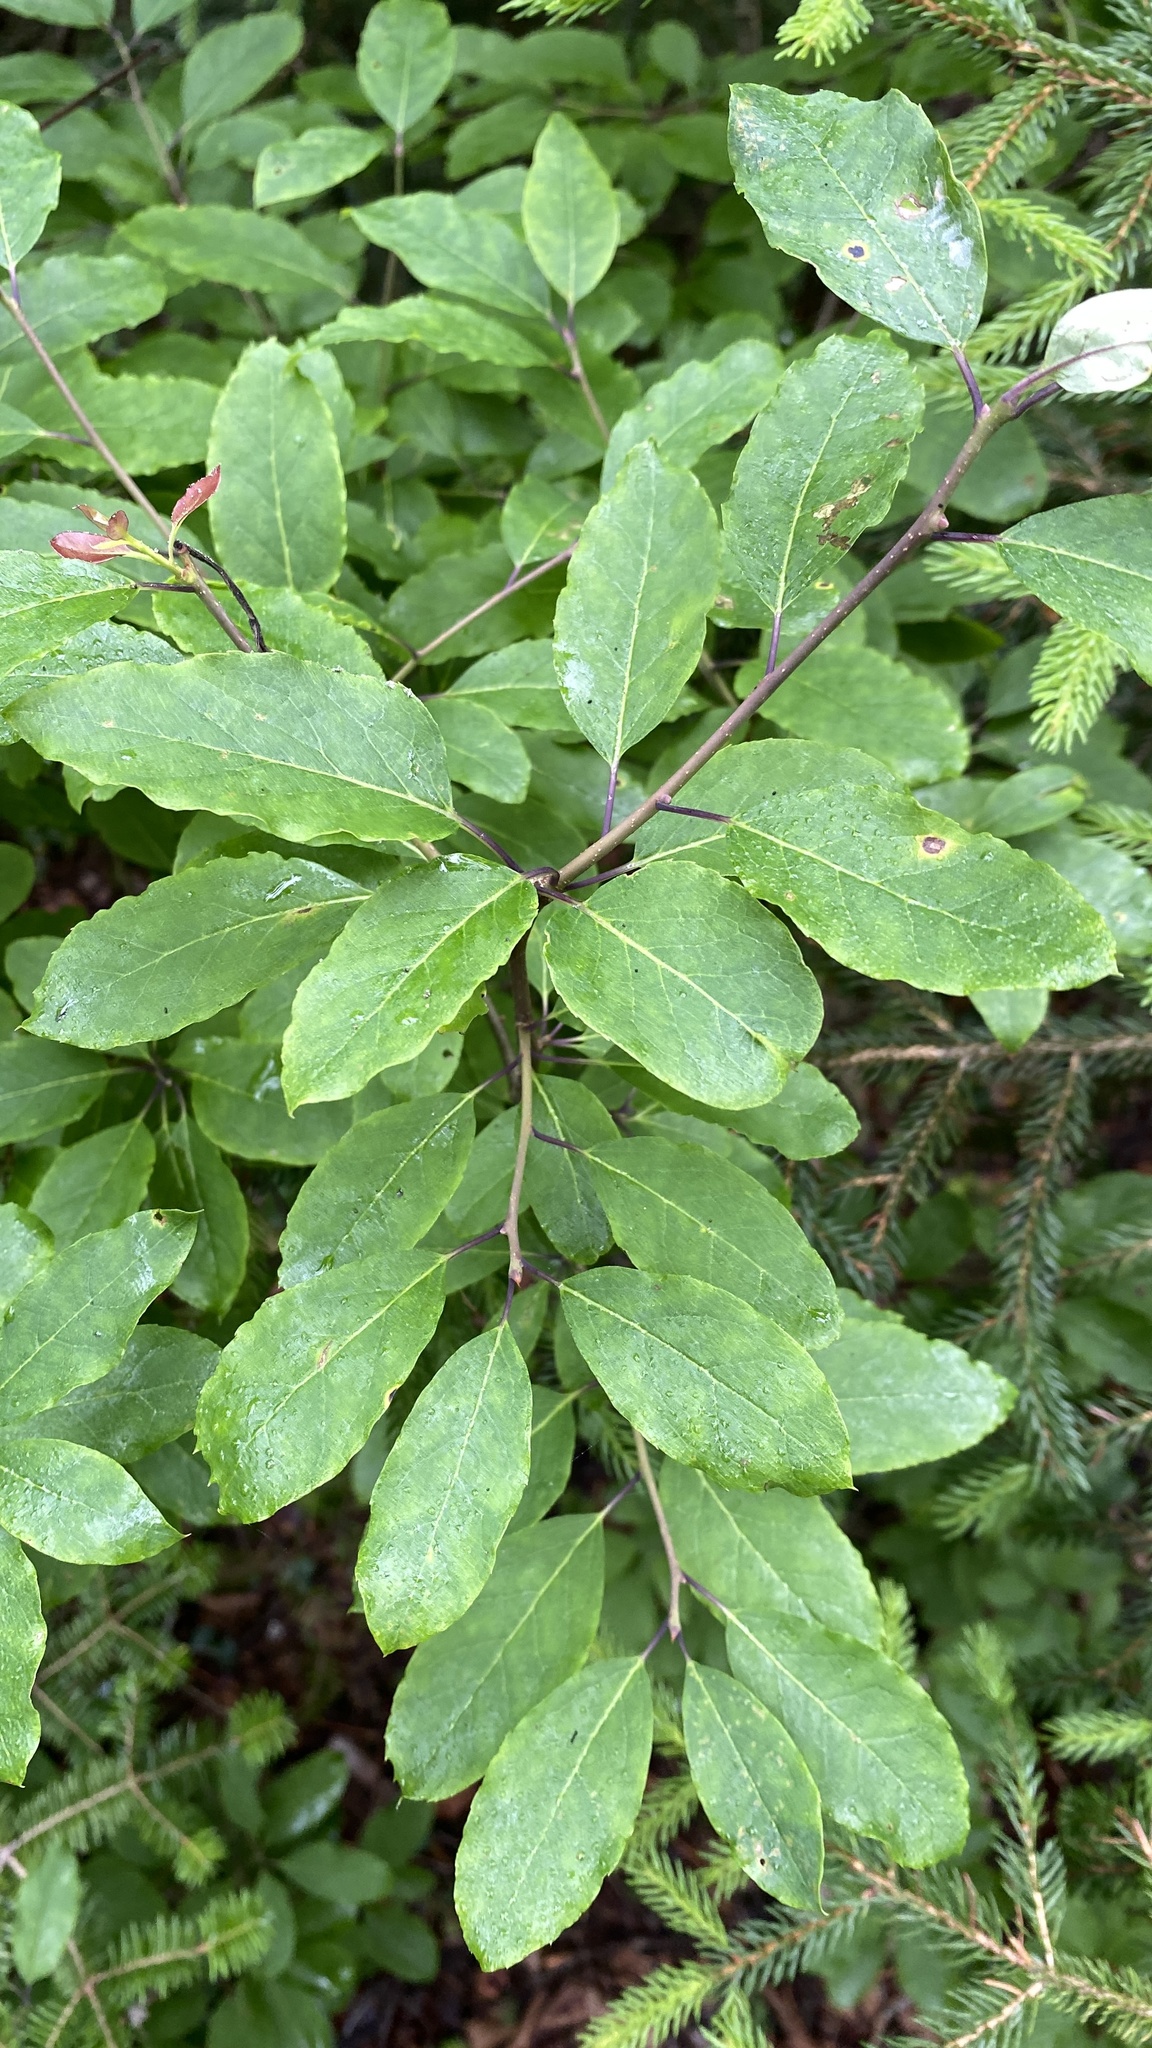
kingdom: Plantae
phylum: Tracheophyta
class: Magnoliopsida
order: Aquifoliales
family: Aquifoliaceae
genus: Ilex
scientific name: Ilex mucronata
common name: Catberry
